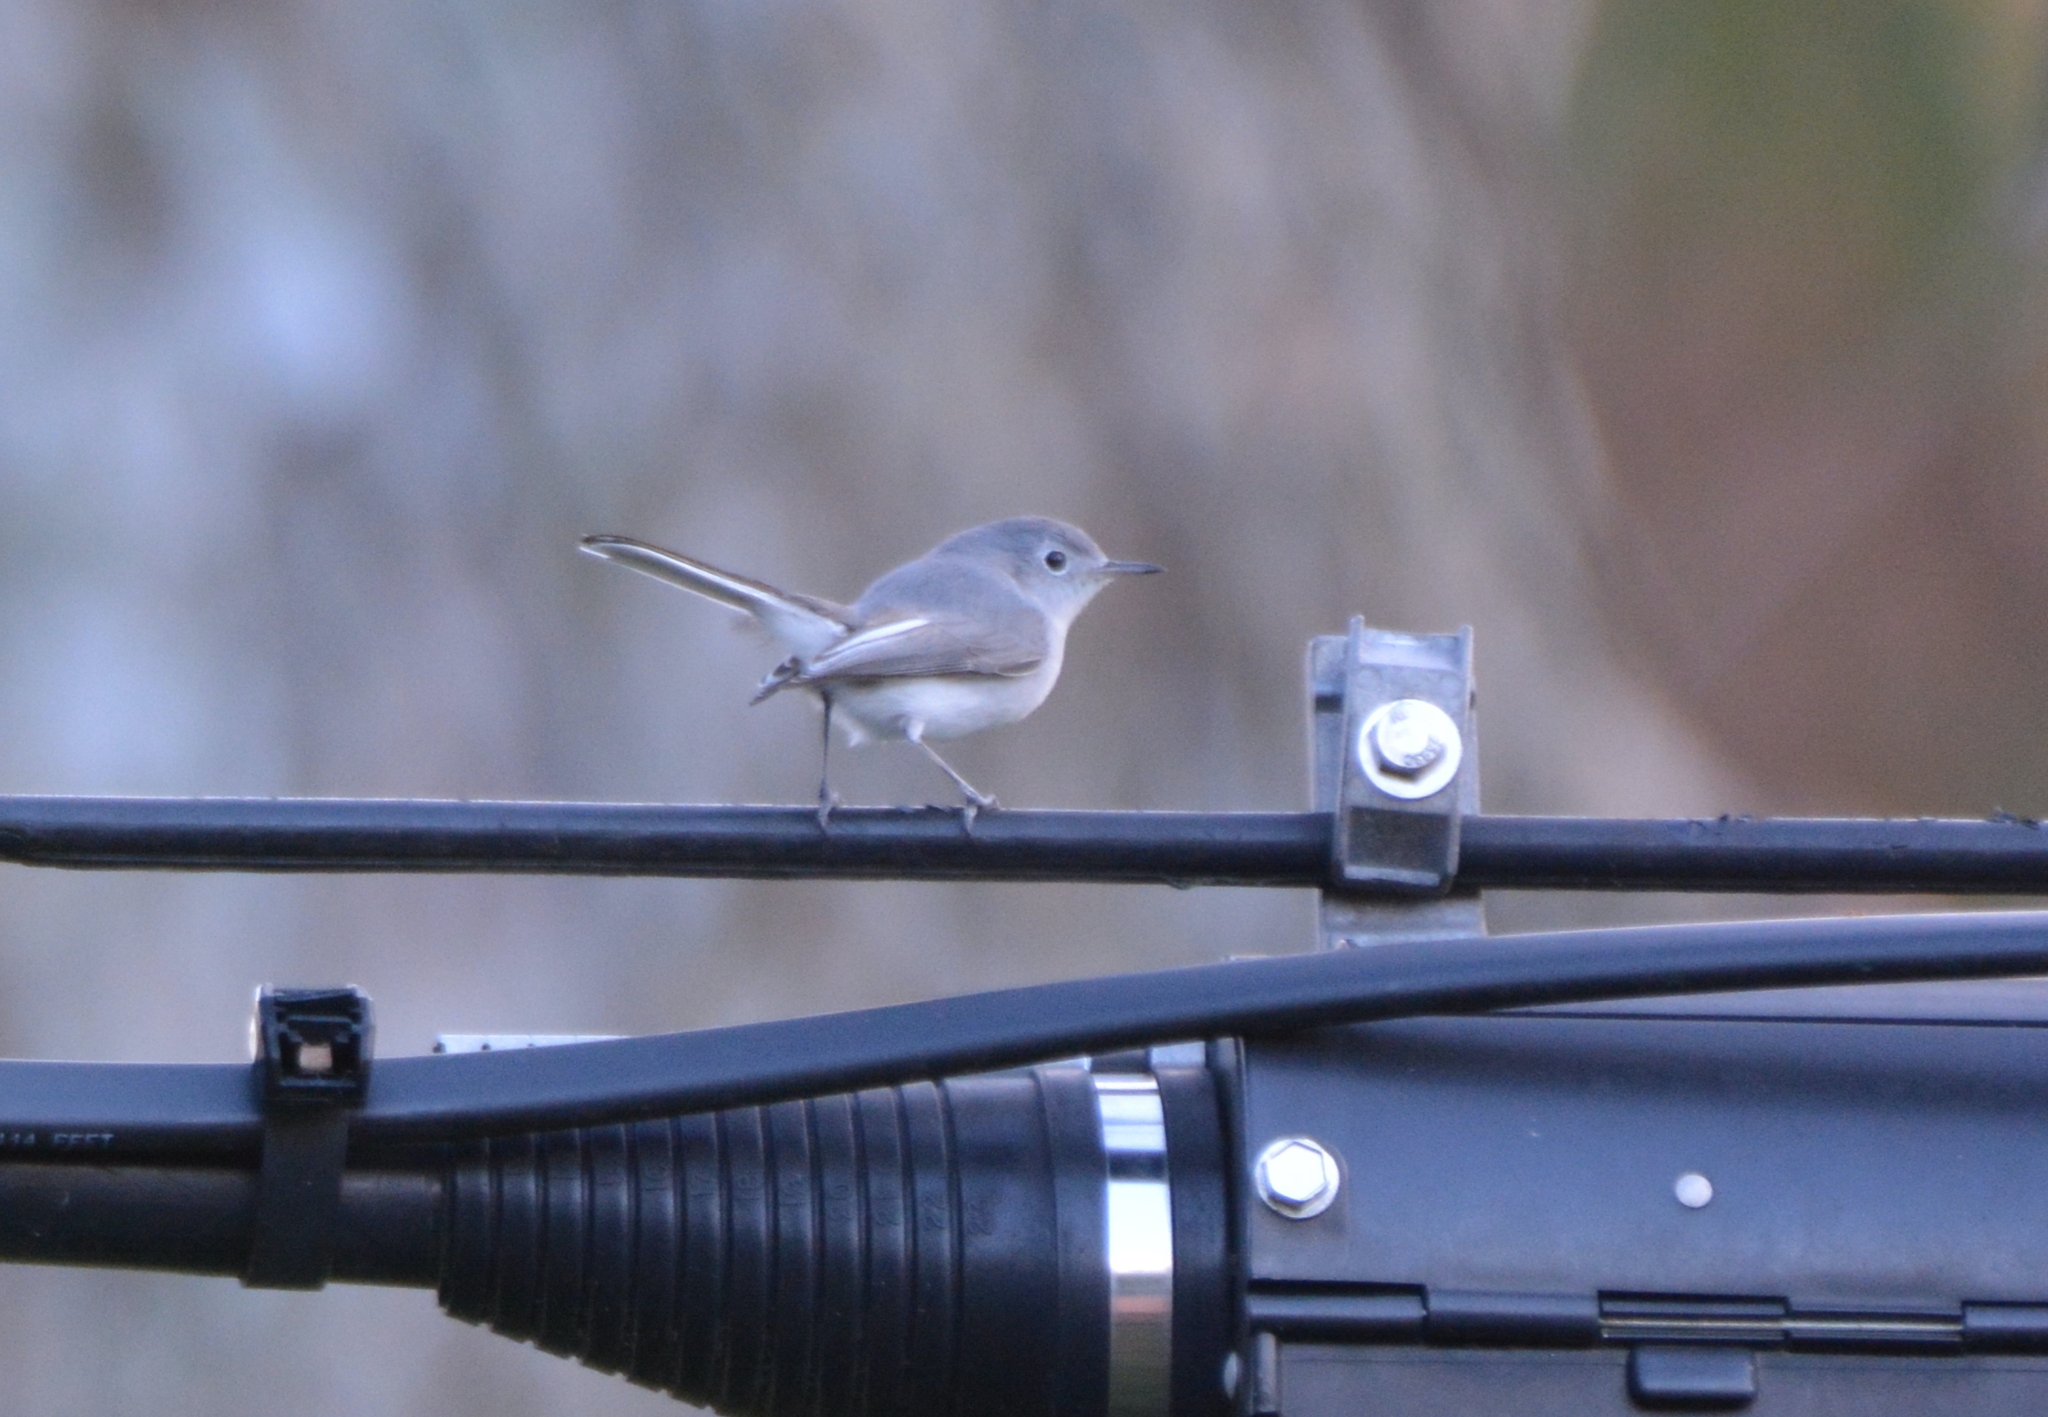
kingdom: Animalia
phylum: Chordata
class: Aves
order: Passeriformes
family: Polioptilidae
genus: Polioptila
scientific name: Polioptila caerulea
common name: Blue-gray gnatcatcher
